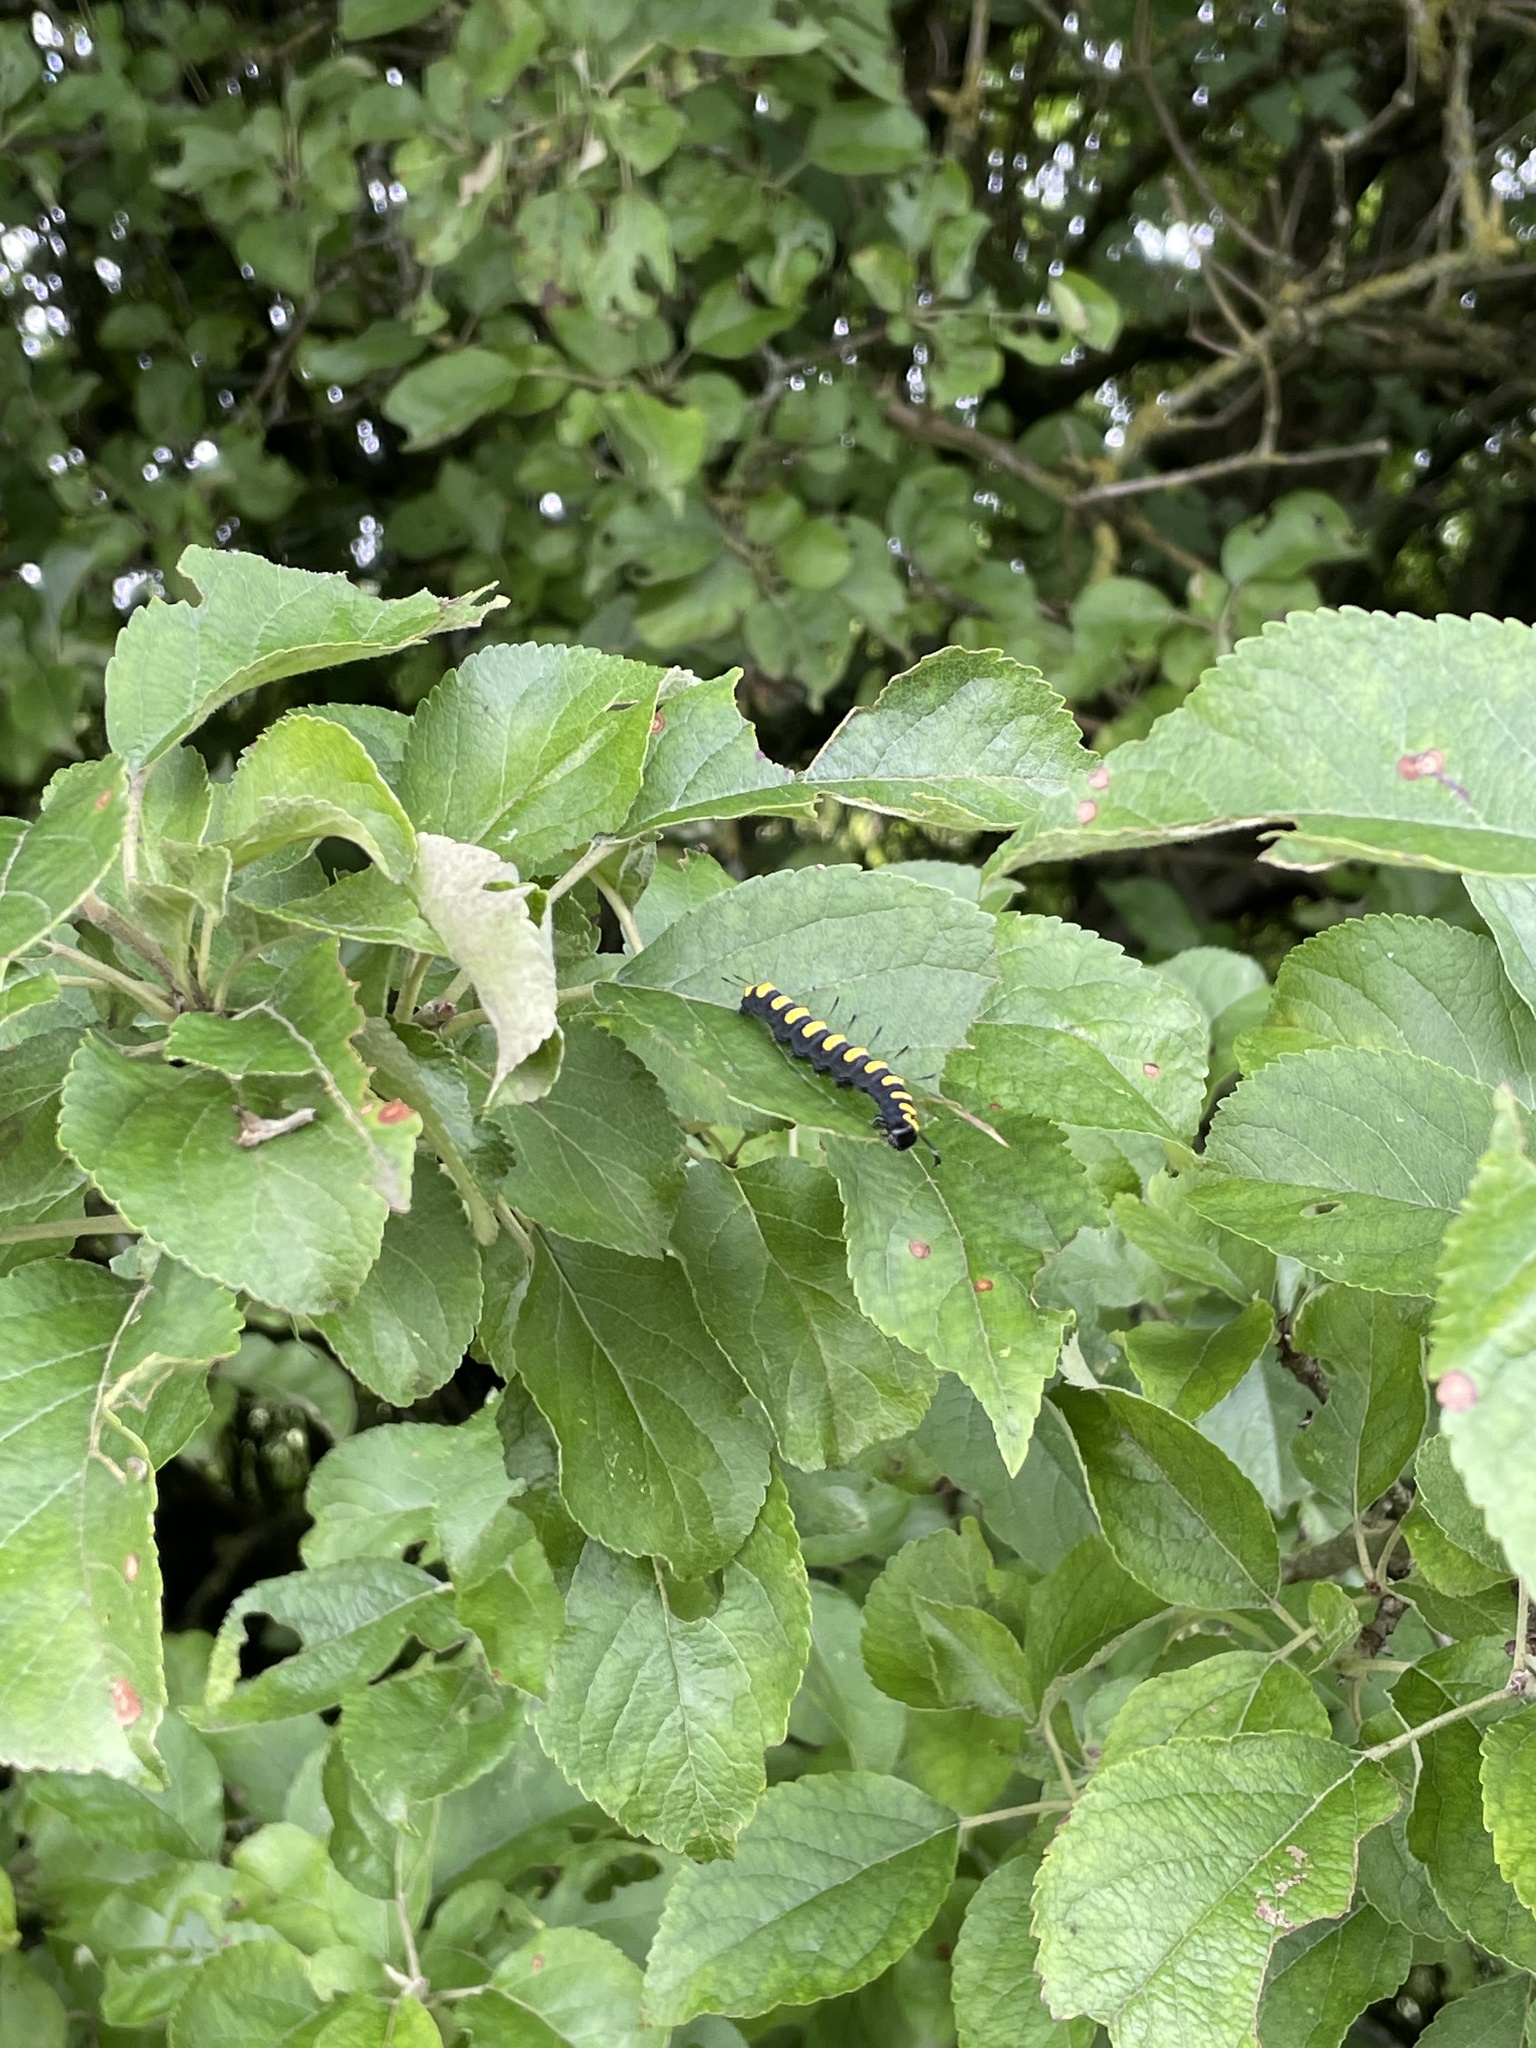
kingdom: Animalia
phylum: Arthropoda
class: Insecta
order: Lepidoptera
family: Noctuidae
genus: Acronicta
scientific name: Acronicta alni
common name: Alder moth
